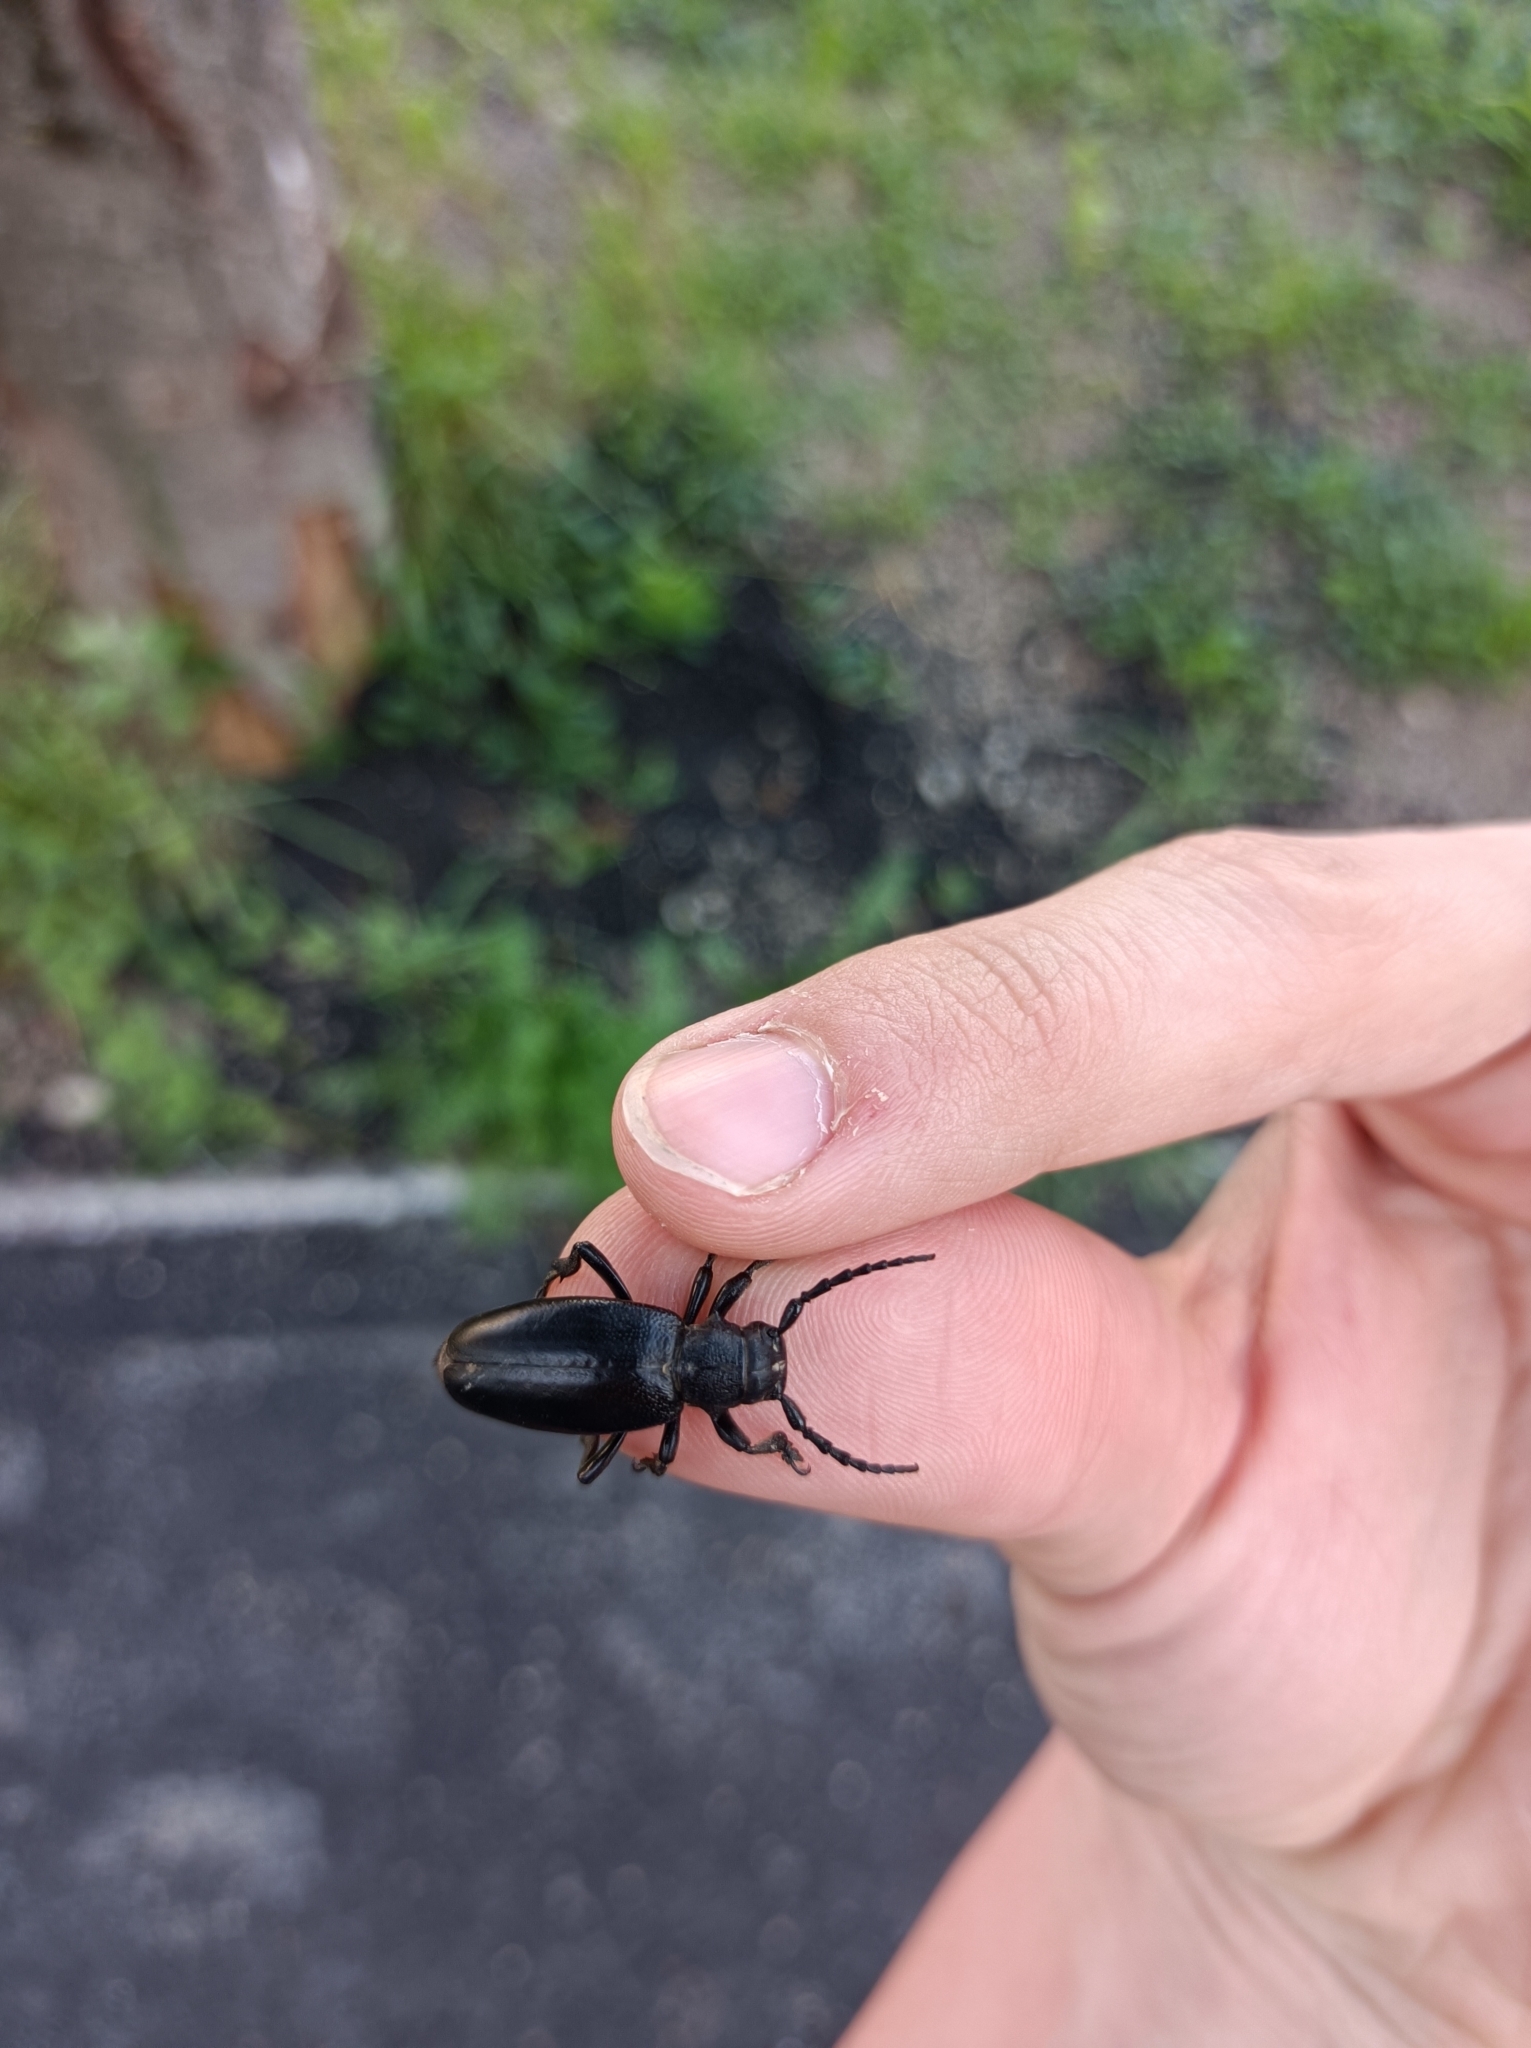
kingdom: Animalia
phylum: Arthropoda
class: Insecta
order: Coleoptera
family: Cerambycidae
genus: Dorcadion
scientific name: Dorcadion aethiops
